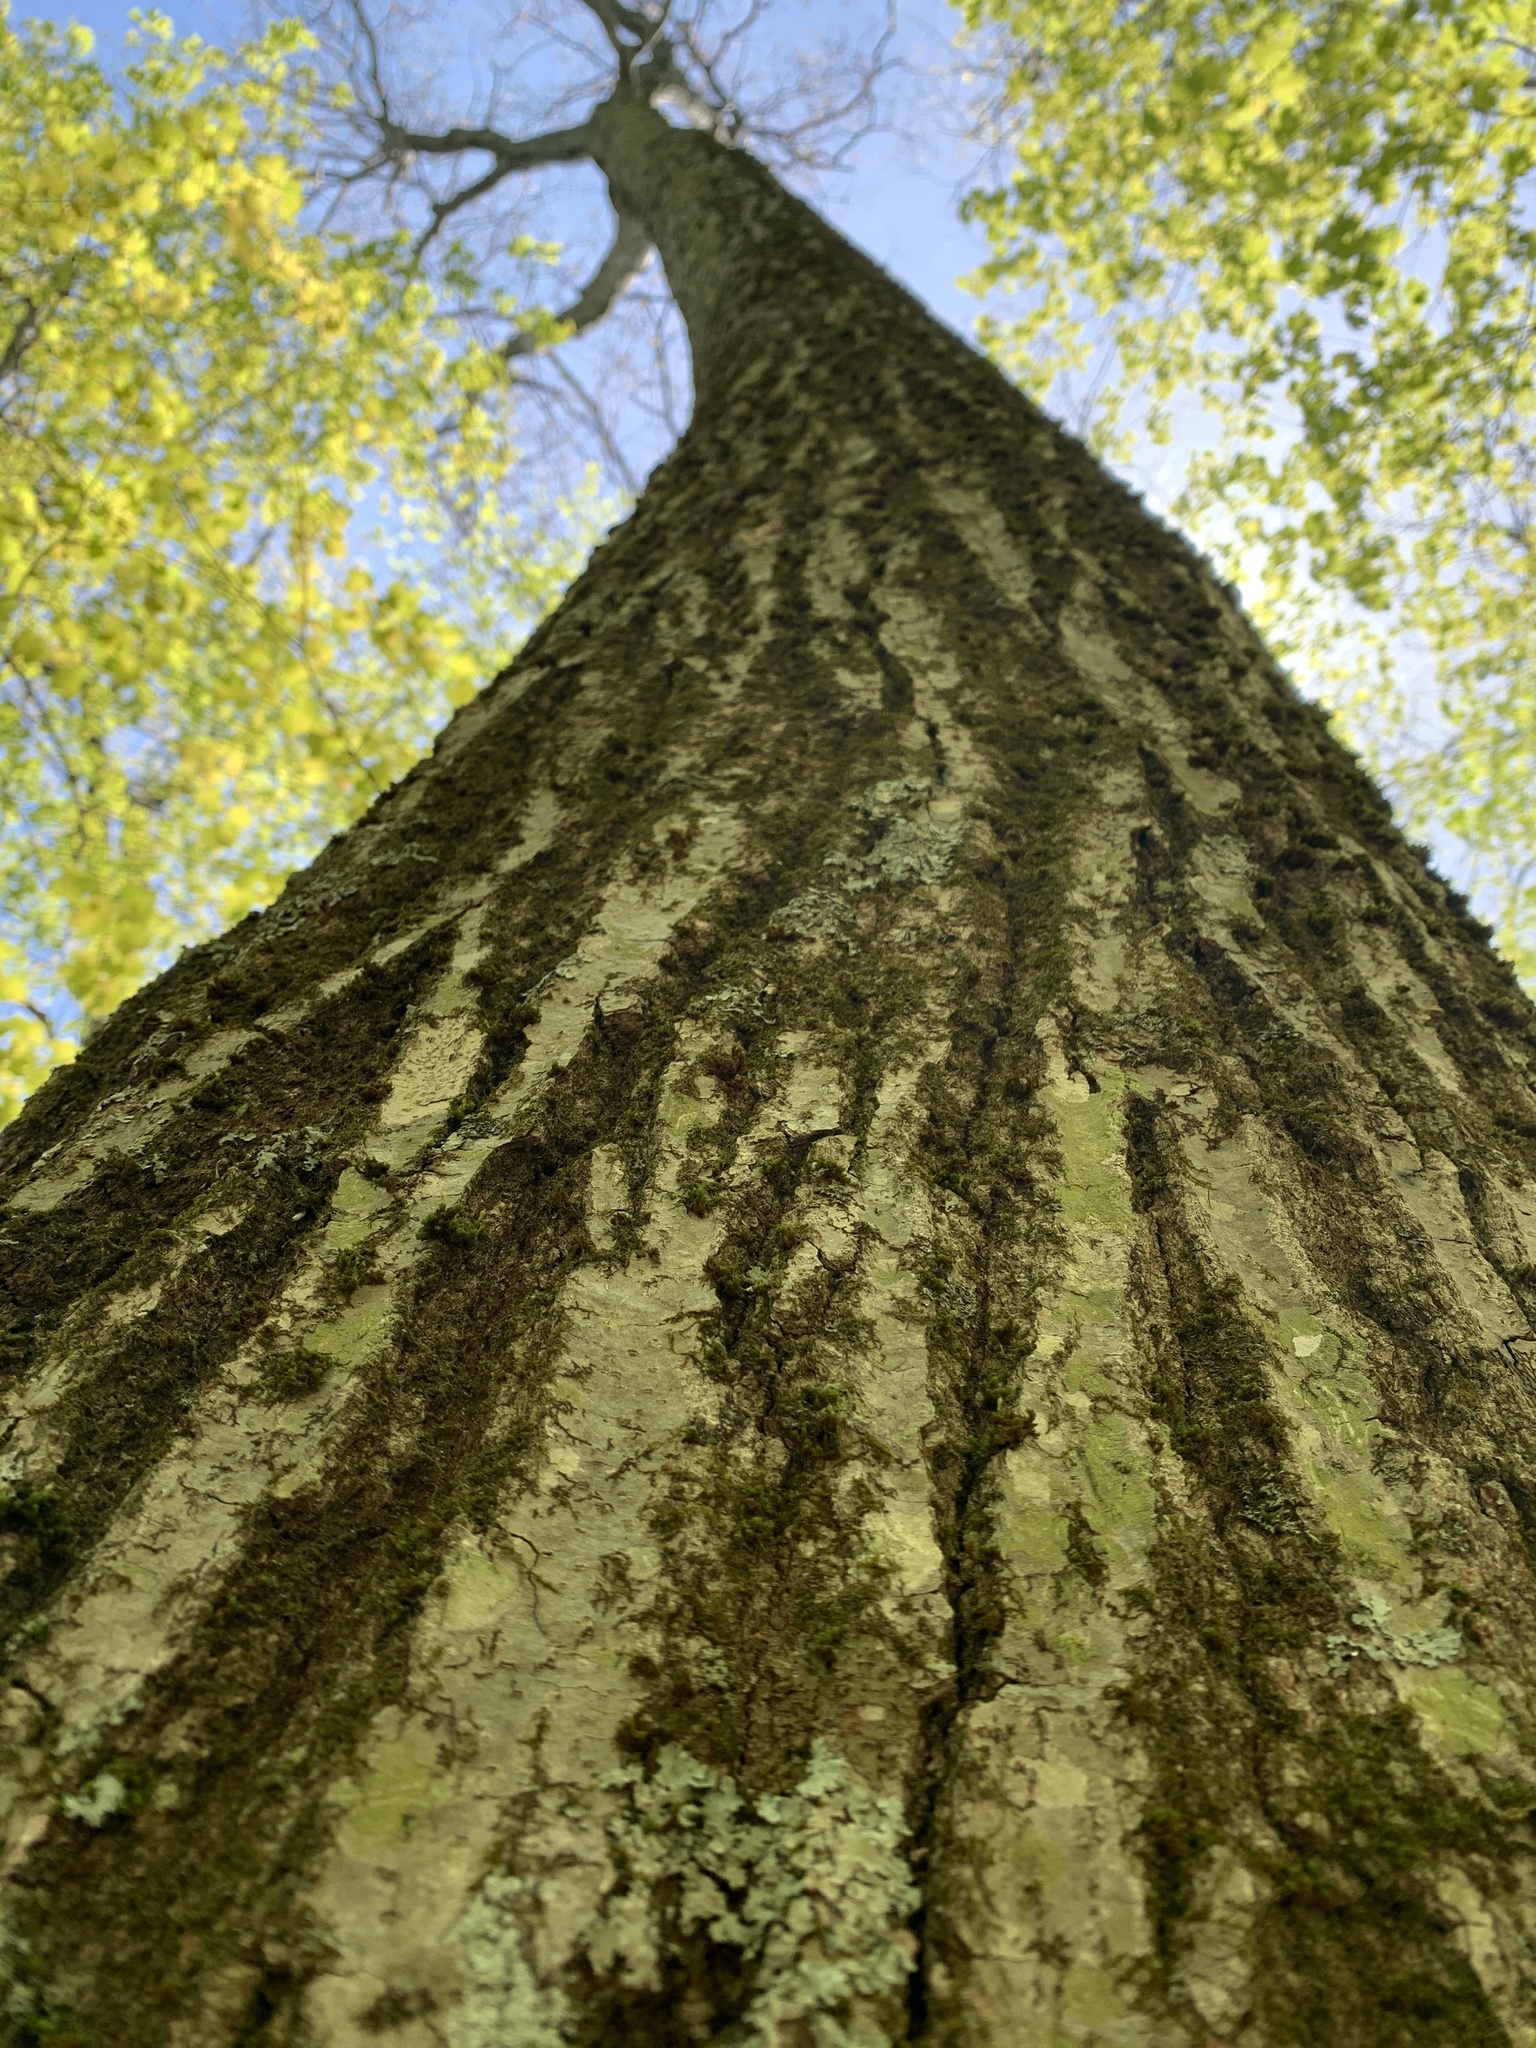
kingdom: Plantae
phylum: Tracheophyta
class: Magnoliopsida
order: Fagales
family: Fagaceae
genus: Quercus
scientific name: Quercus rubra
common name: Red oak
